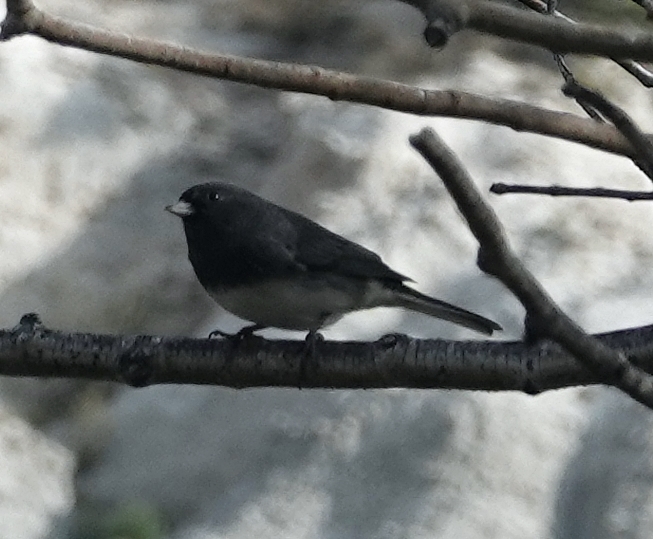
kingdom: Animalia
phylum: Chordata
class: Aves
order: Passeriformes
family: Passerellidae
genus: Junco
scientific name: Junco hyemalis
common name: Dark-eyed junco
